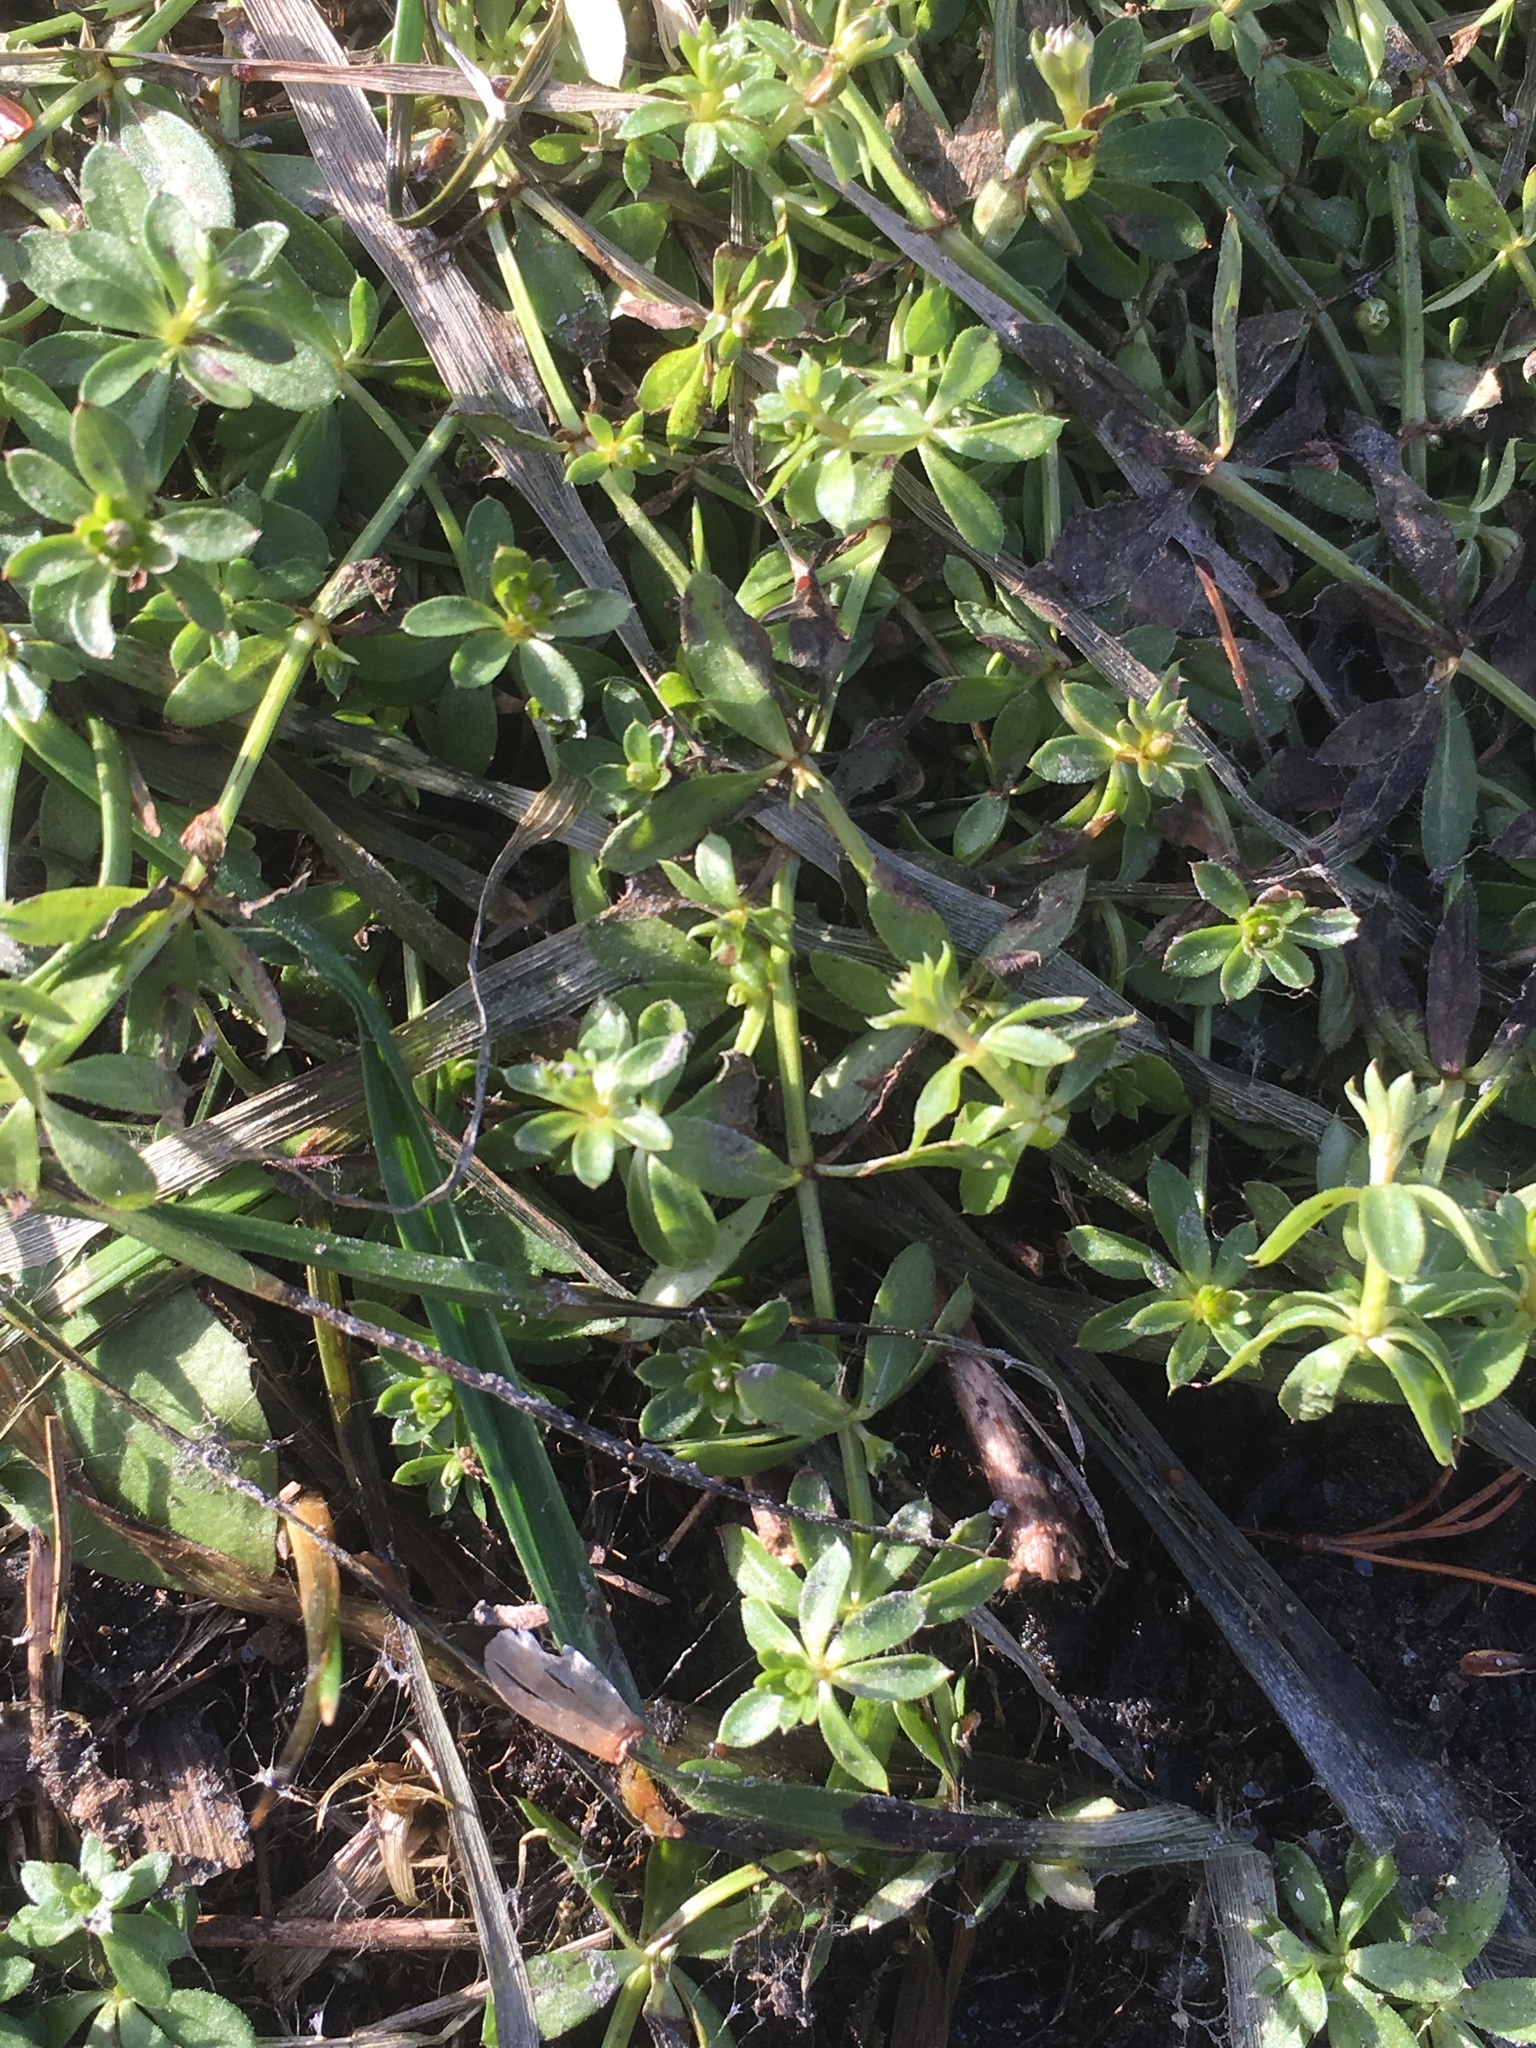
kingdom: Plantae
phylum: Tracheophyta
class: Magnoliopsida
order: Gentianales
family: Rubiaceae
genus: Galium
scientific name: Galium mollugo
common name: Hedge bedstraw
